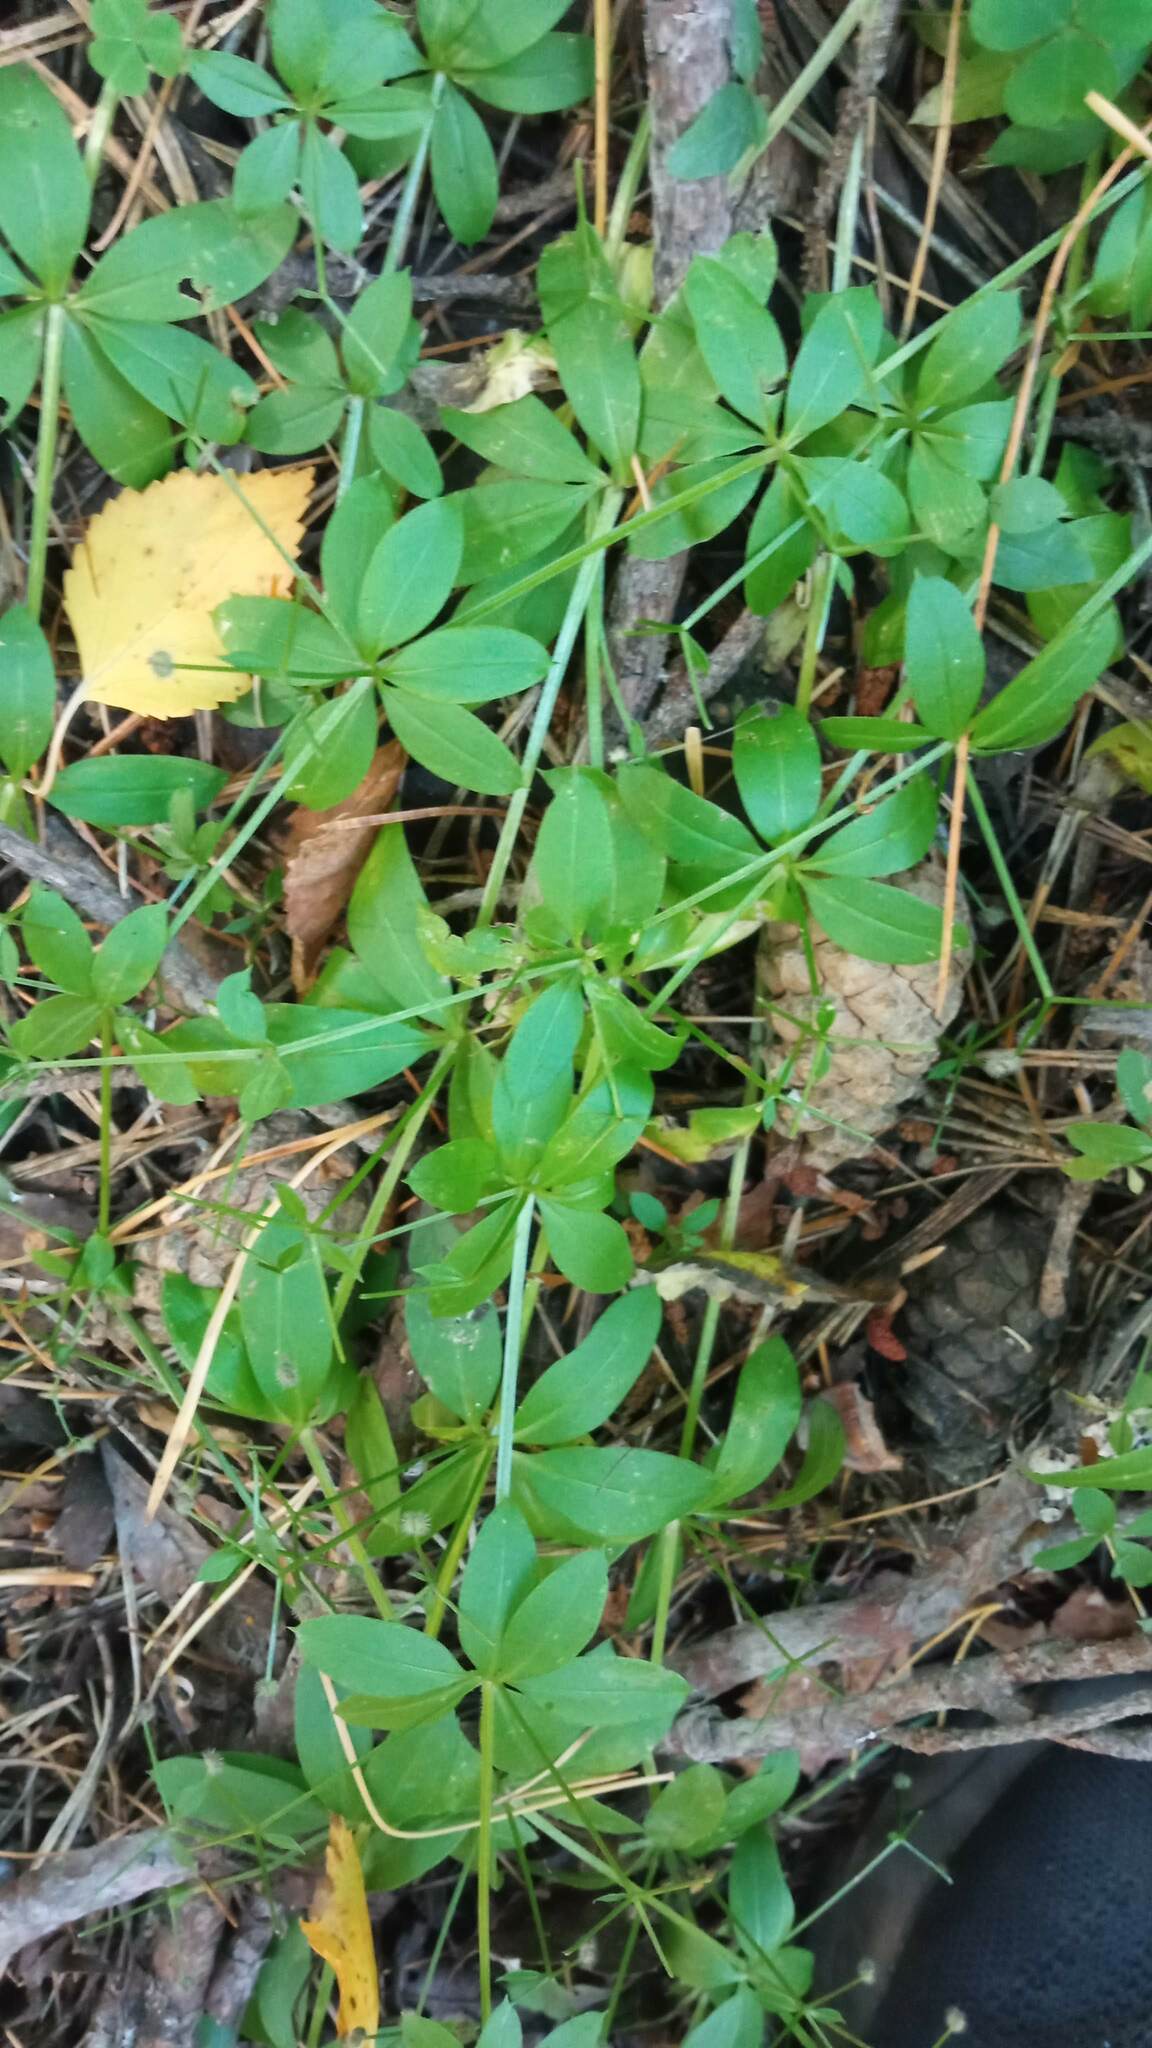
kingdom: Plantae
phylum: Tracheophyta
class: Magnoliopsida
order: Gentianales
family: Rubiaceae
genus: Galium
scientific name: Galium triflorum
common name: Fragrant bedstraw
